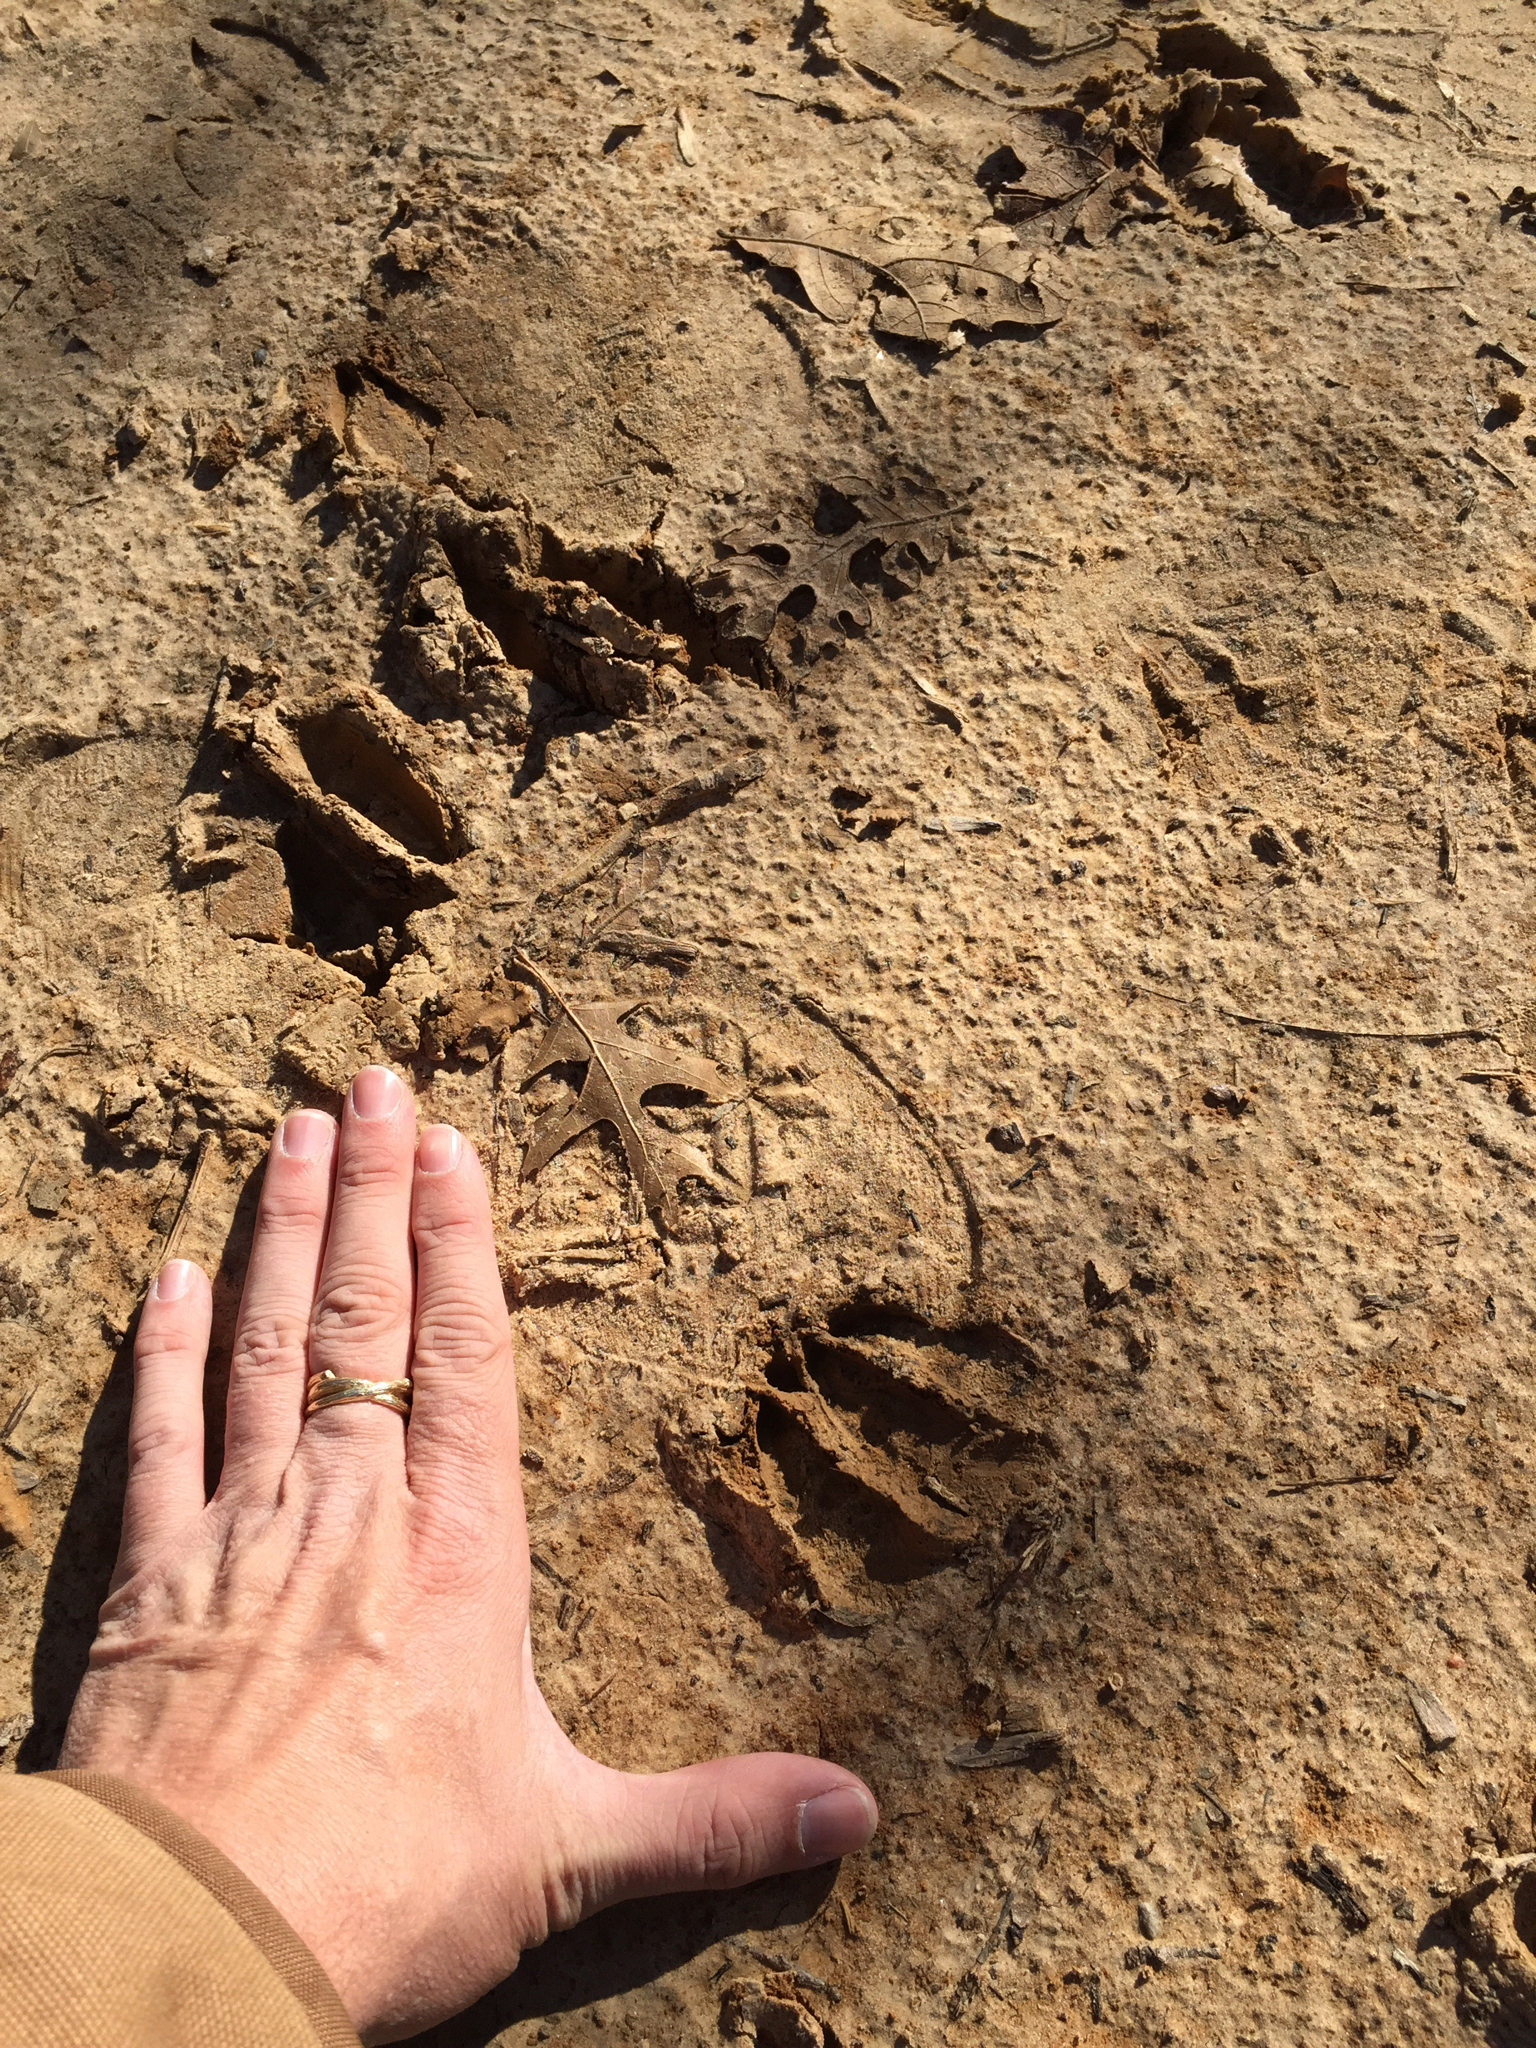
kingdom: Animalia
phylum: Chordata
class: Mammalia
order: Artiodactyla
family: Cervidae
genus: Odocoileus
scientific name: Odocoileus virginianus
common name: White-tailed deer
